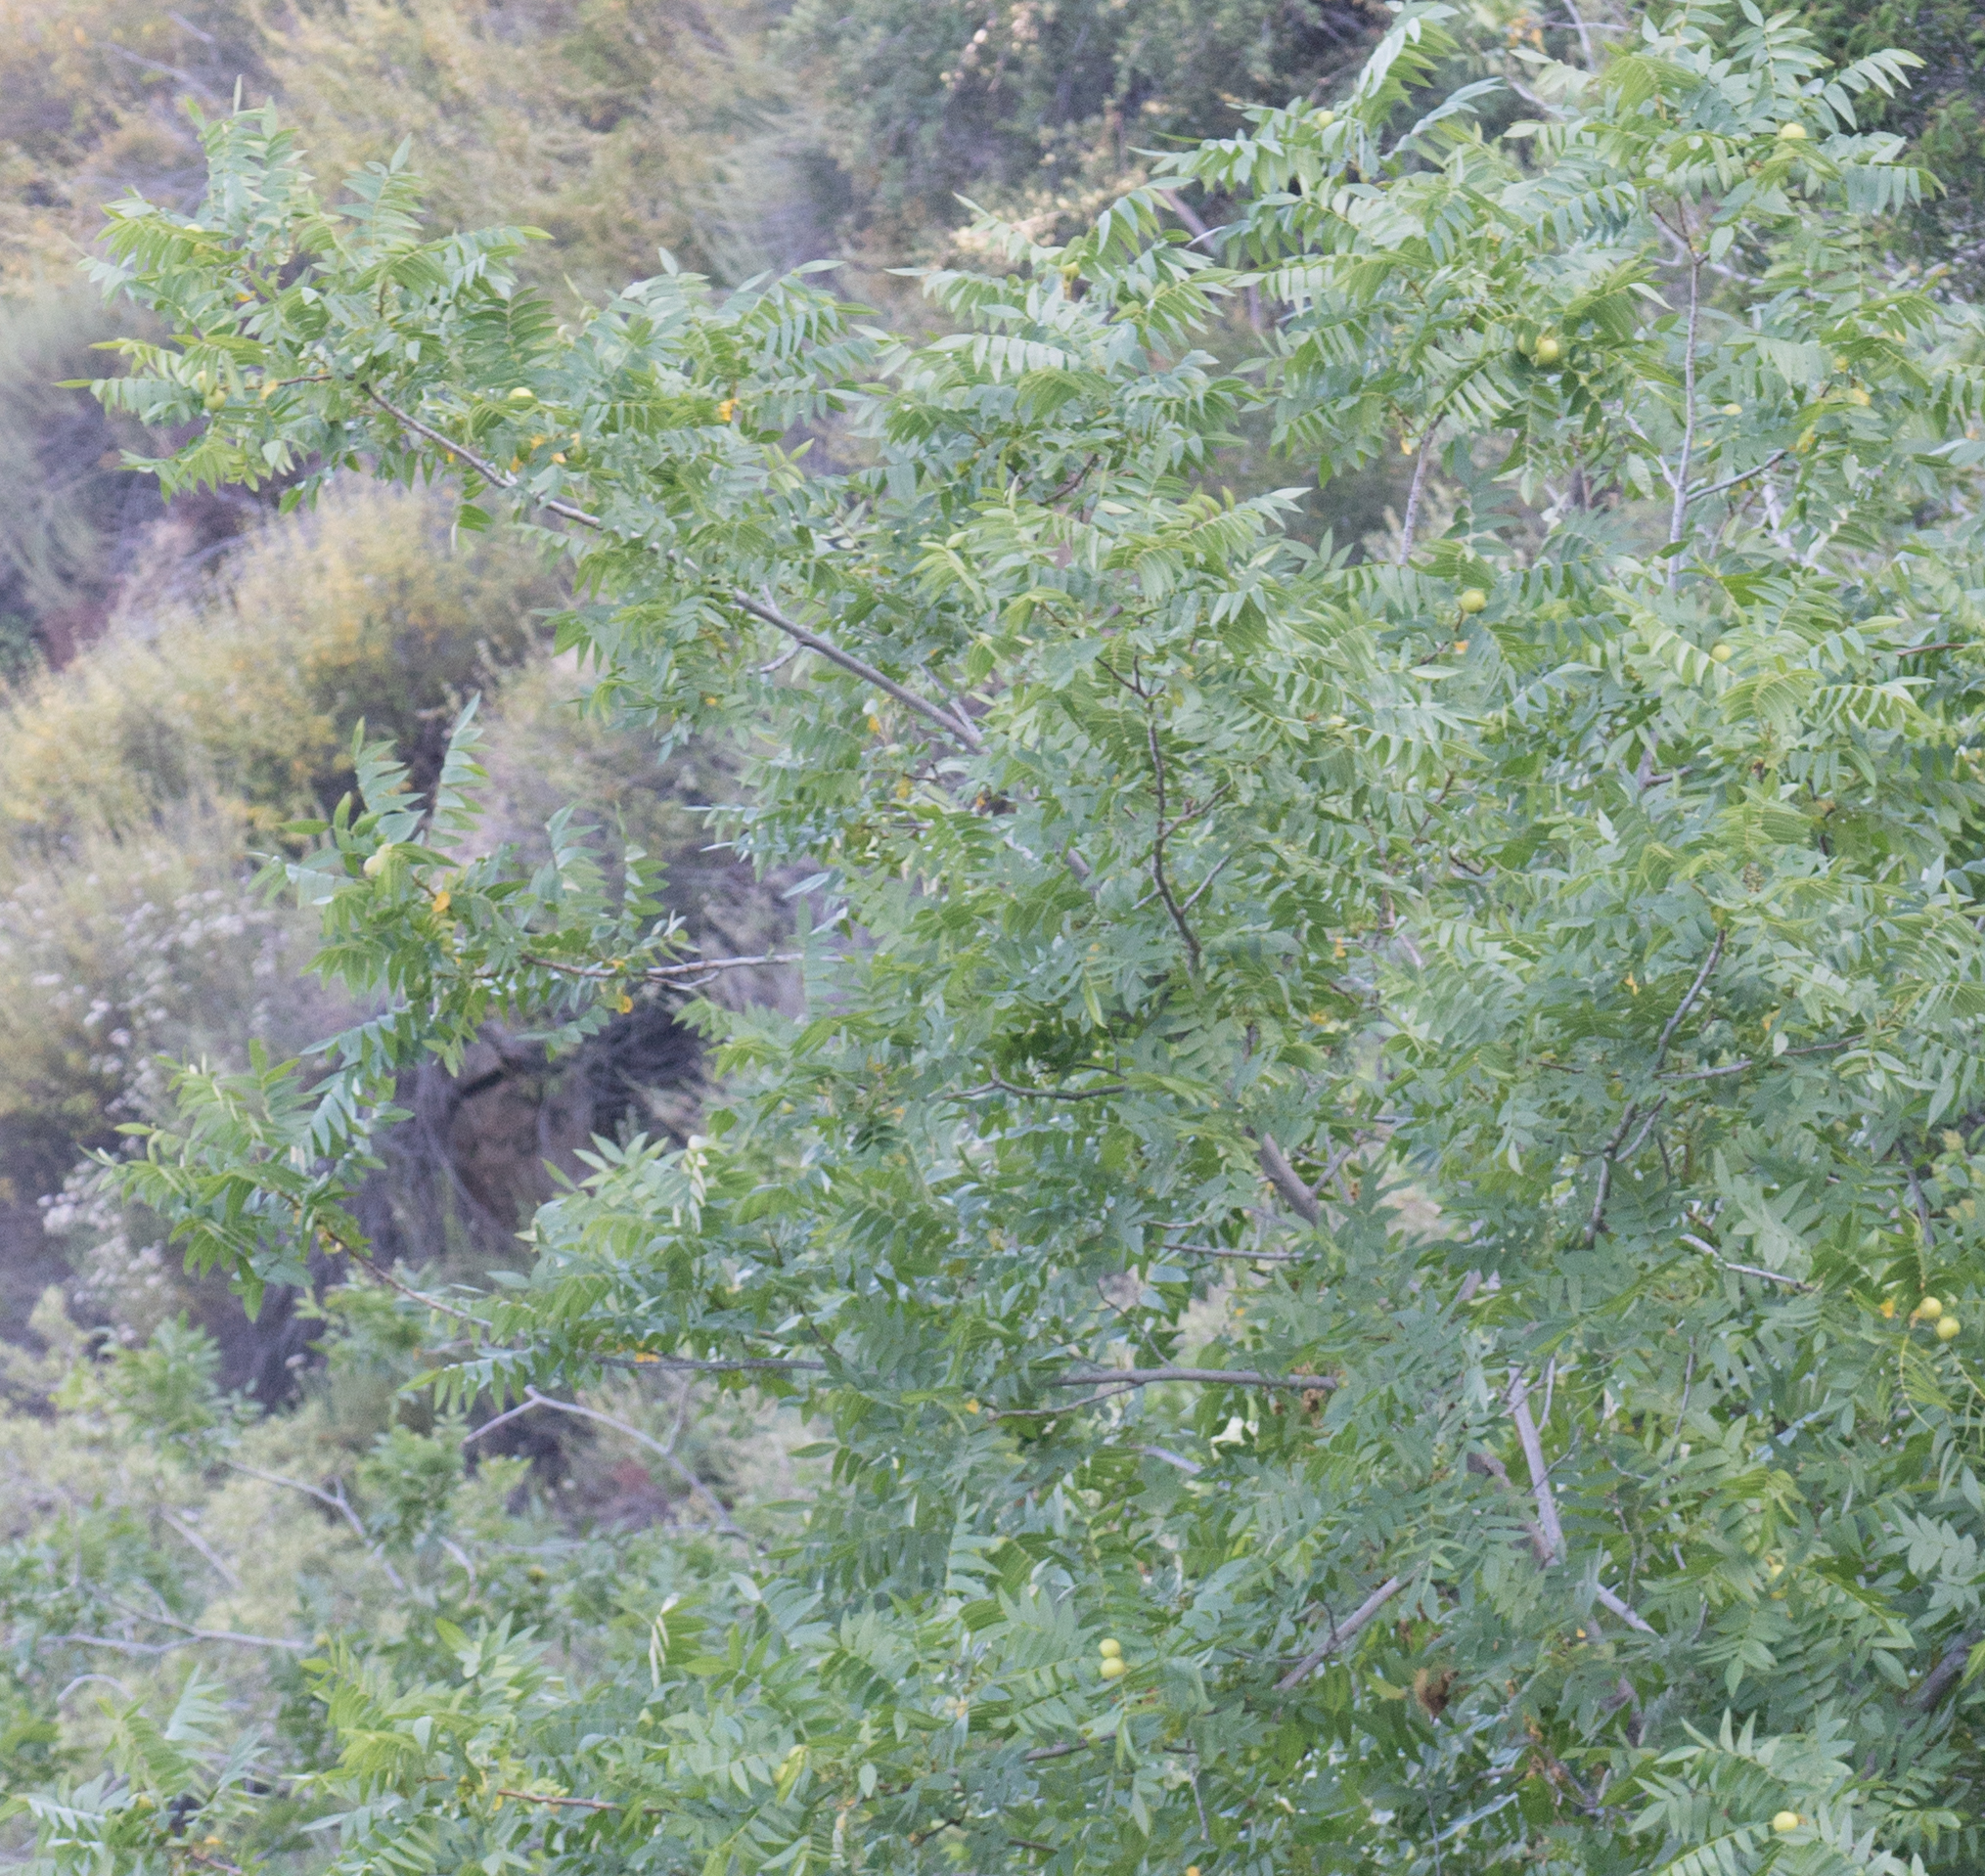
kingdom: Plantae
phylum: Tracheophyta
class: Magnoliopsida
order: Fagales
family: Juglandaceae
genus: Juglans
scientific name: Juglans californica
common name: Southern california black walnut
